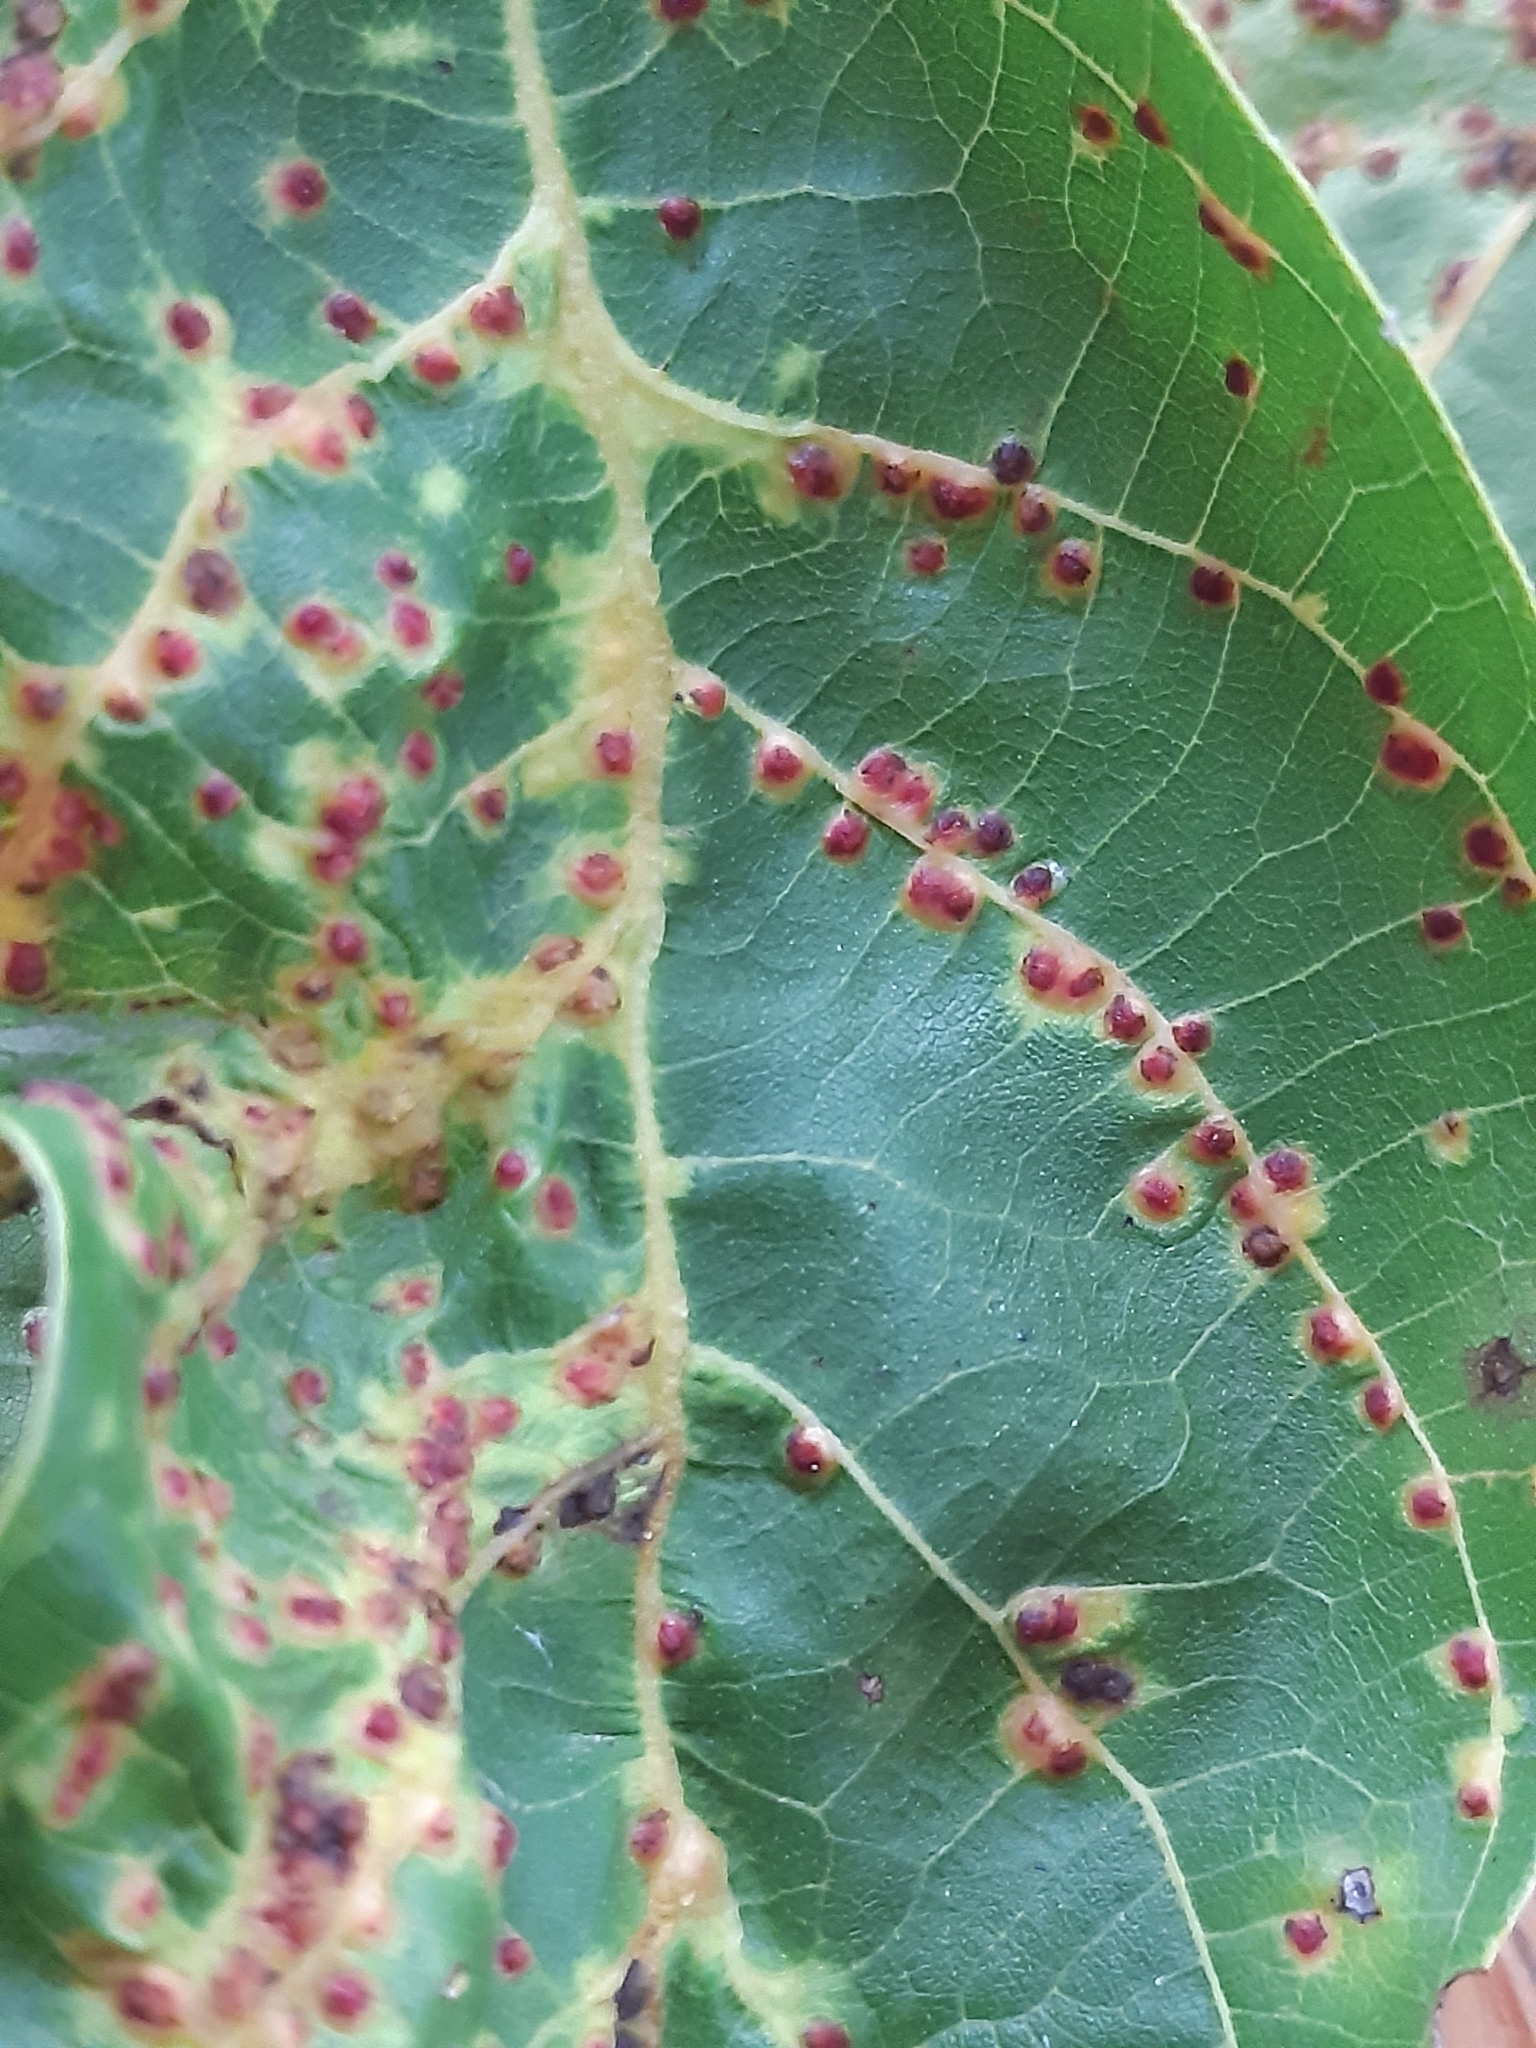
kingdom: Animalia
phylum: Arthropoda
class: Arachnida
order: Trombidiformes
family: Eriophyidae
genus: Aceria
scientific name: Aceria tristriata
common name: Persian walnut leaf blister mite
